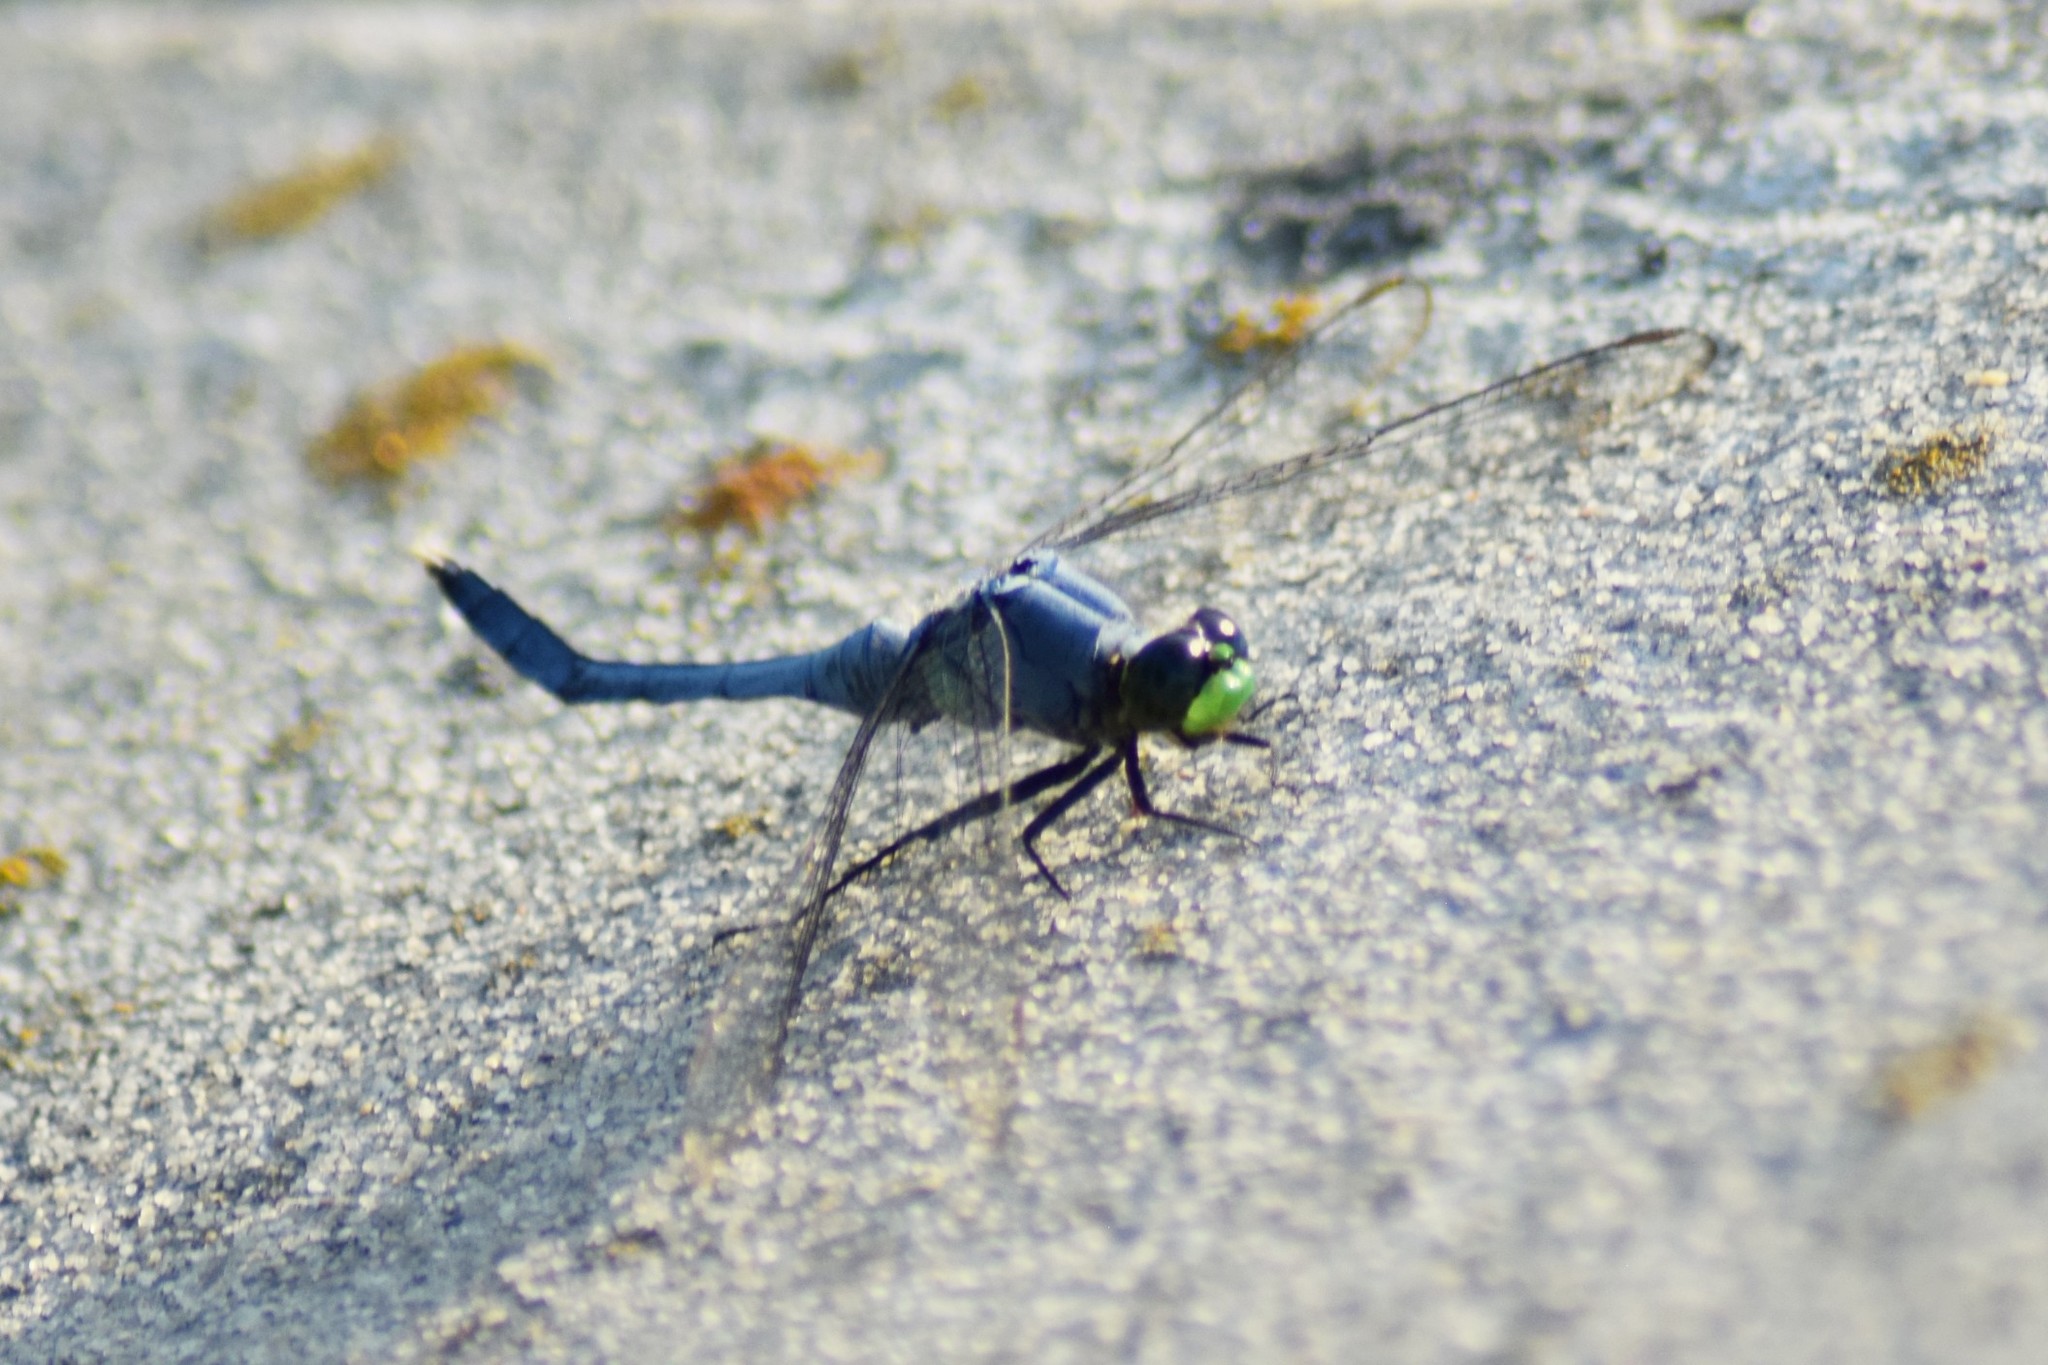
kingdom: Animalia
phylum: Arthropoda
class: Insecta
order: Odonata
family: Libellulidae
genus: Erythemis
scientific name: Erythemis simplicicollis
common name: Eastern pondhawk
